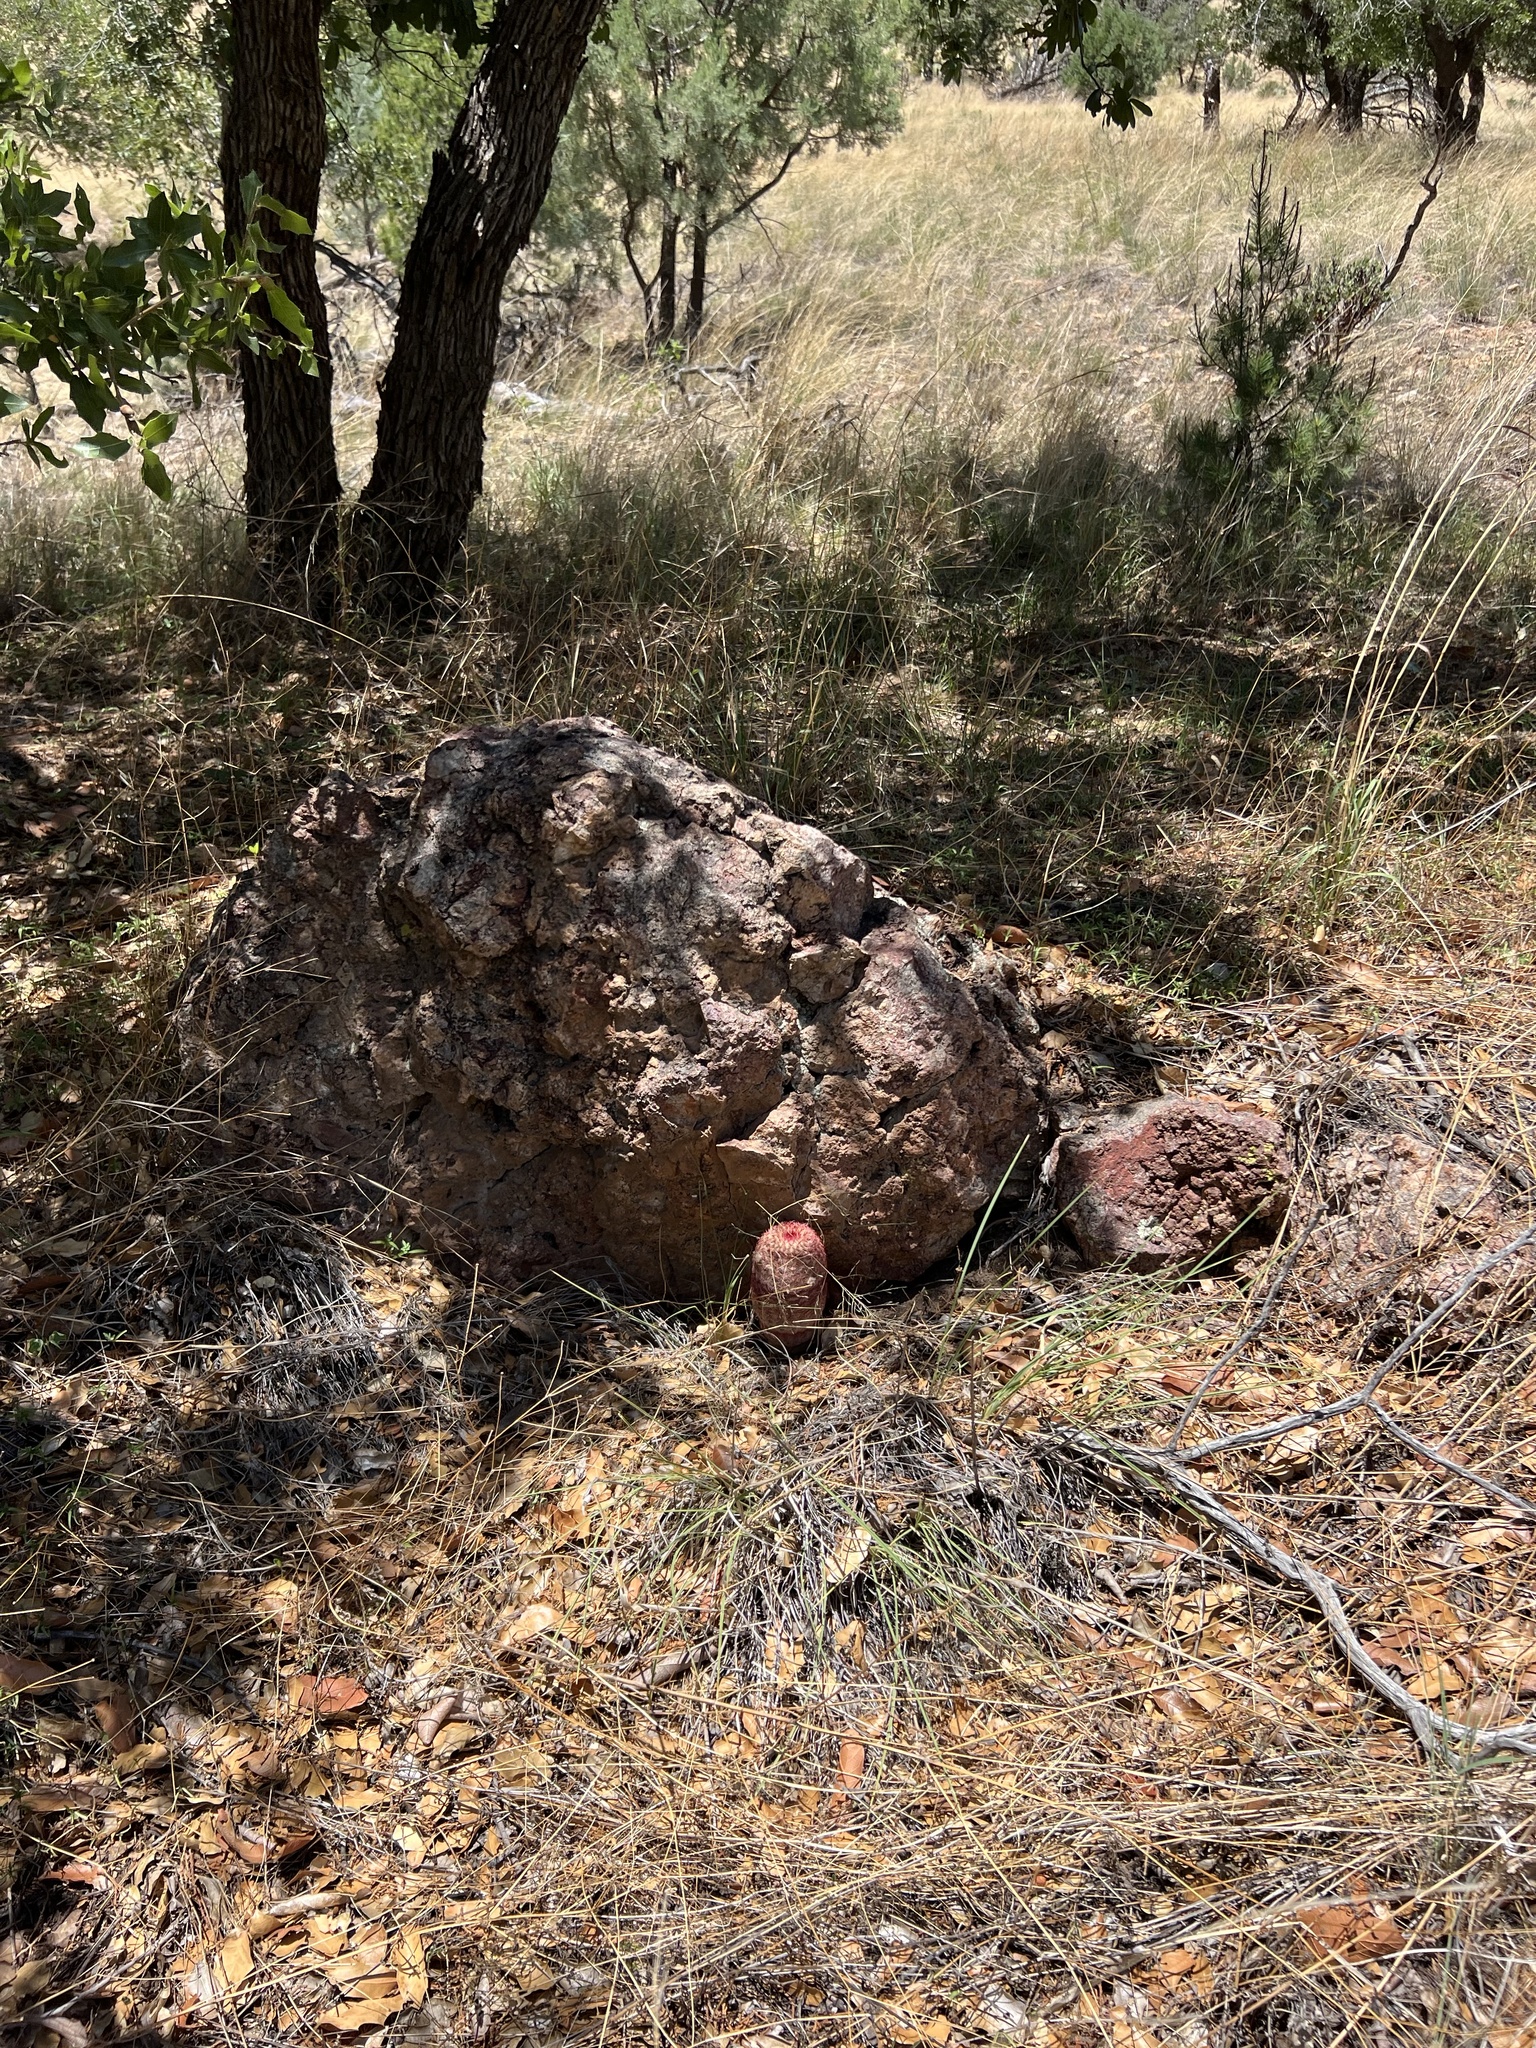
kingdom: Plantae
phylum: Tracheophyta
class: Magnoliopsida
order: Caryophyllales
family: Cactaceae
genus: Echinocereus
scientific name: Echinocereus rigidissimus
